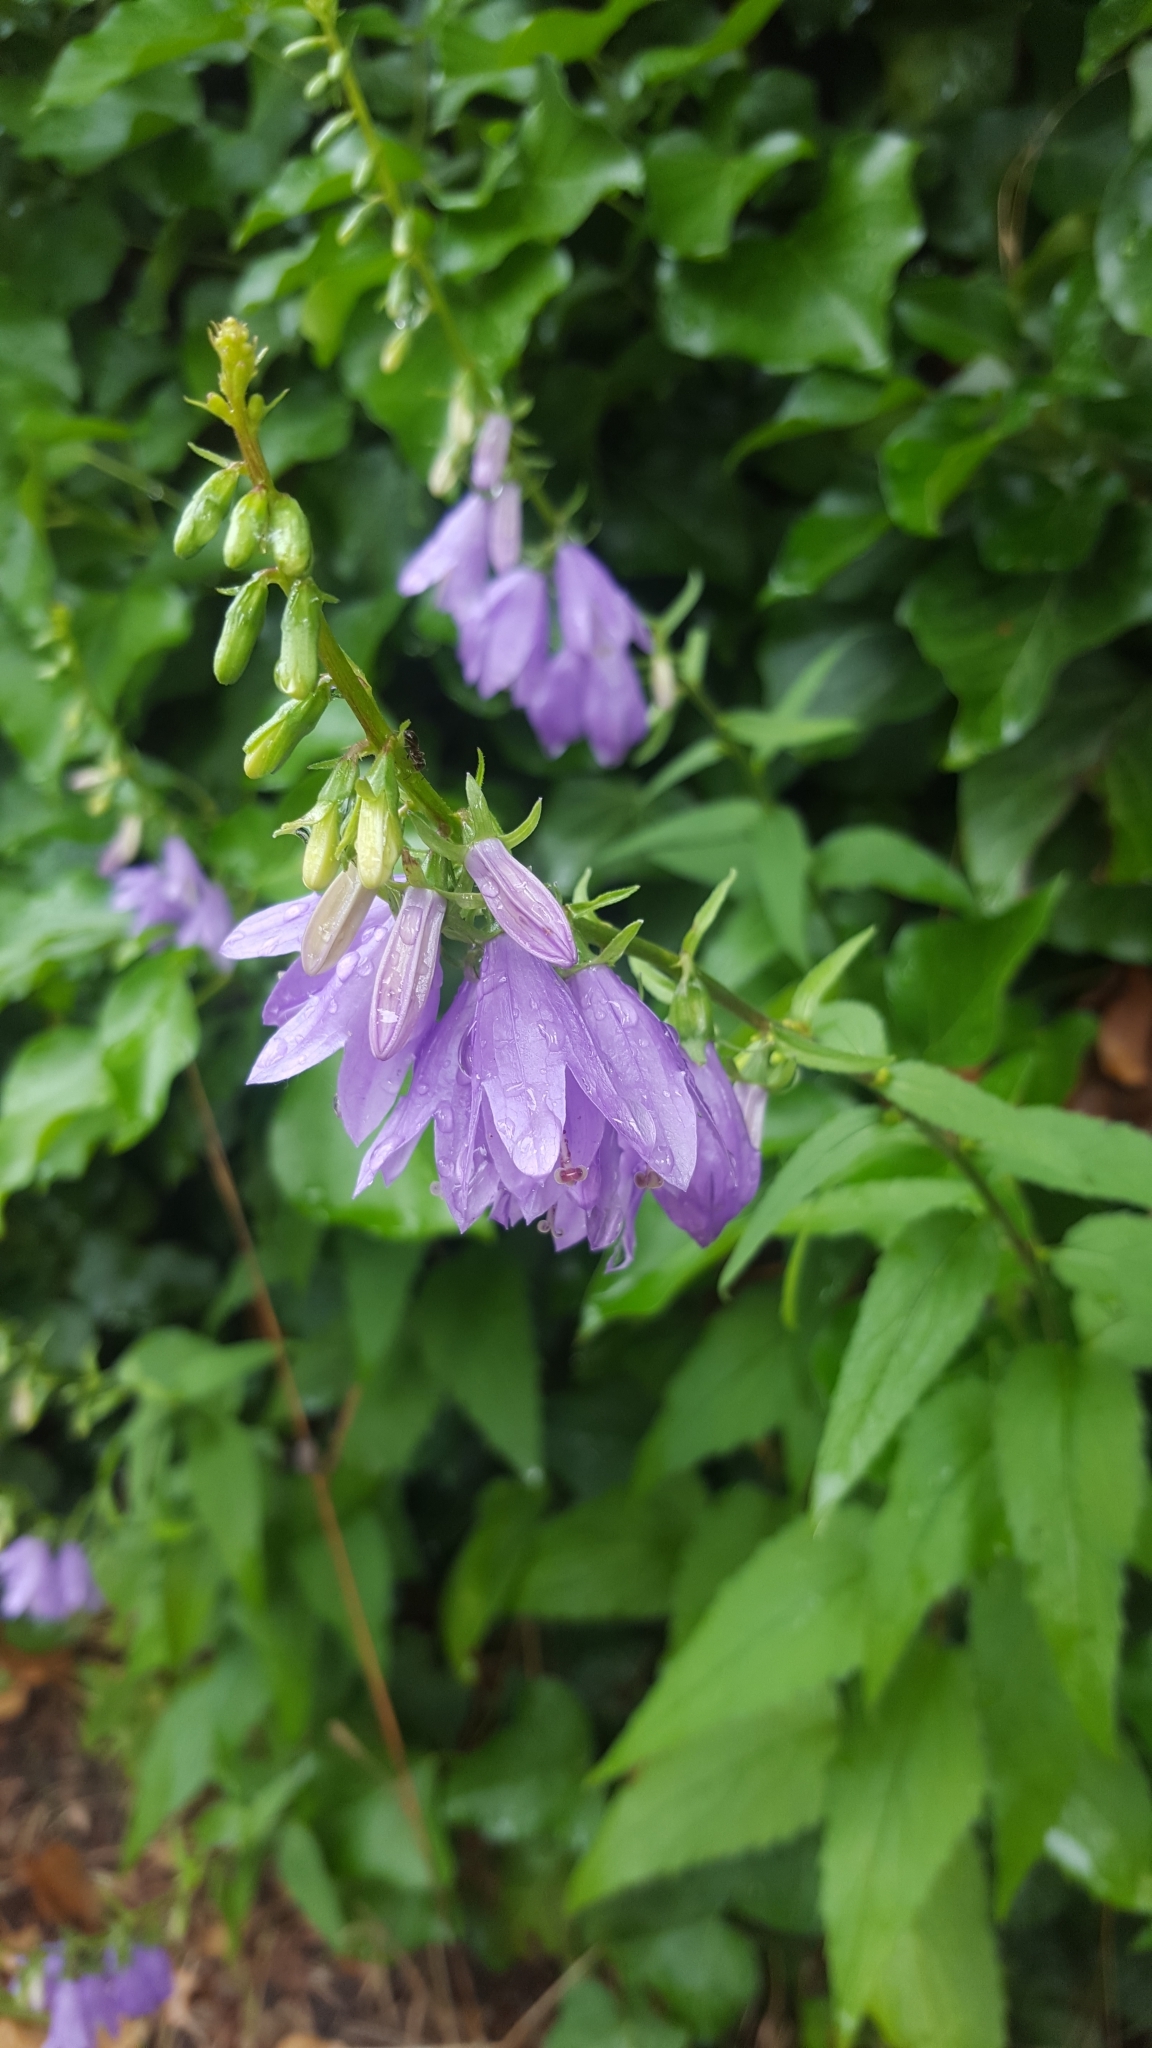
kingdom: Plantae
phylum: Tracheophyta
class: Magnoliopsida
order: Asterales
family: Campanulaceae
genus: Campanula
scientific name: Campanula rapunculoides
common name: Creeping bellflower
